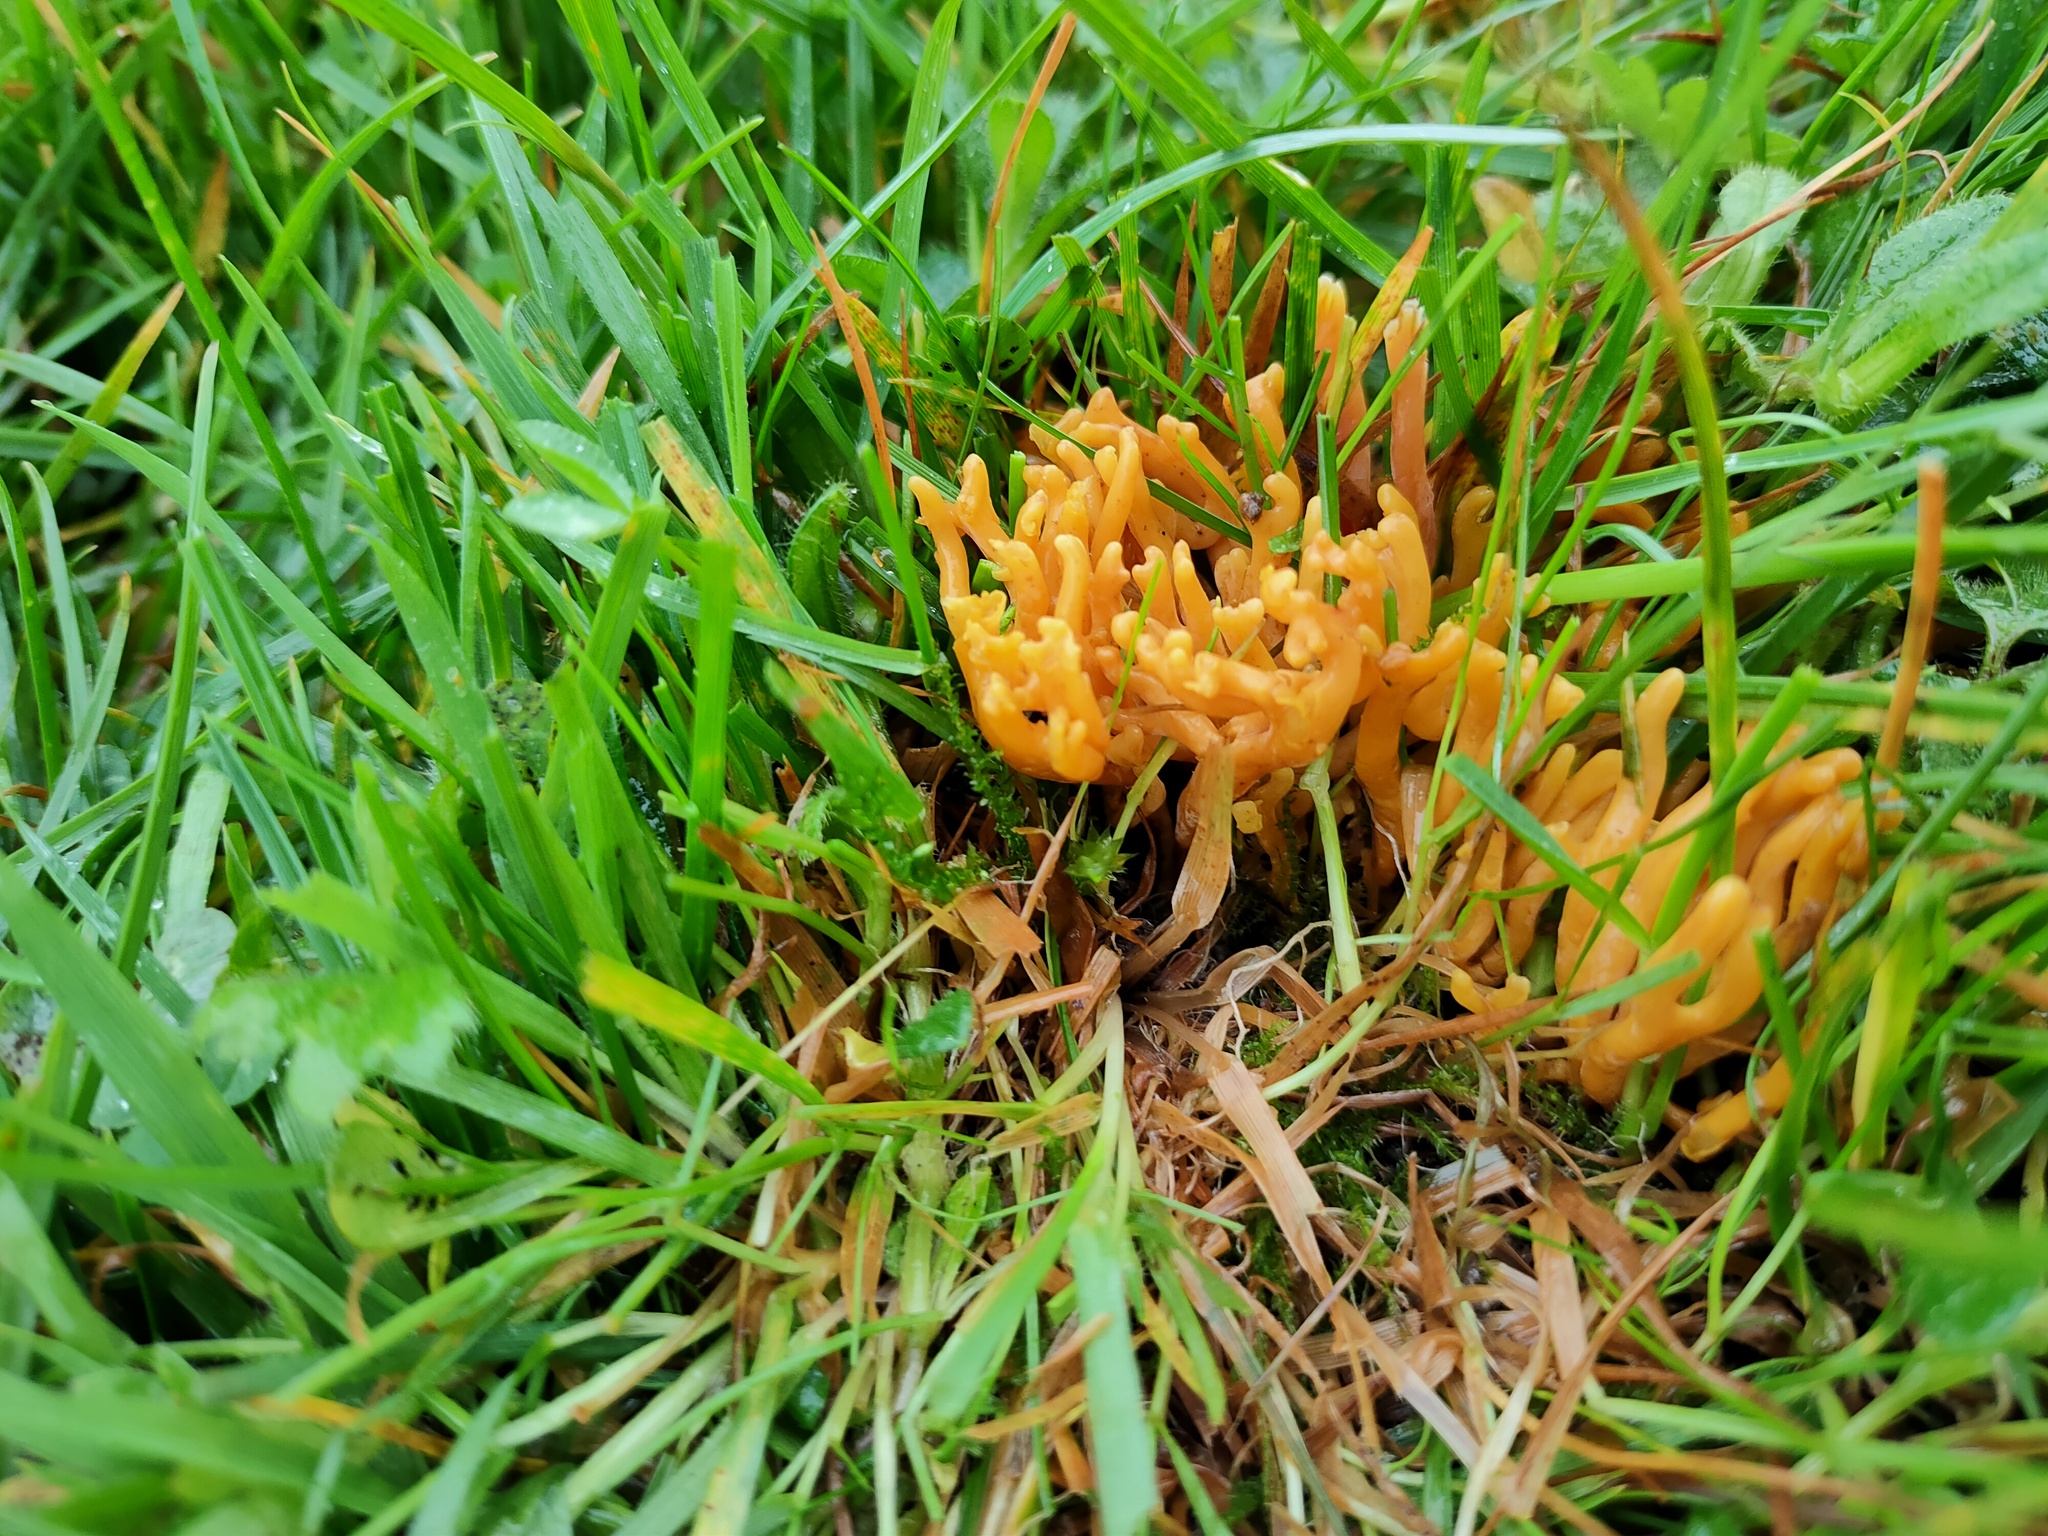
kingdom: Fungi
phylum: Basidiomycota
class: Agaricomycetes
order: Agaricales
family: Clavariaceae
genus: Clavulinopsis
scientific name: Clavulinopsis corniculata
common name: Meadow coral
